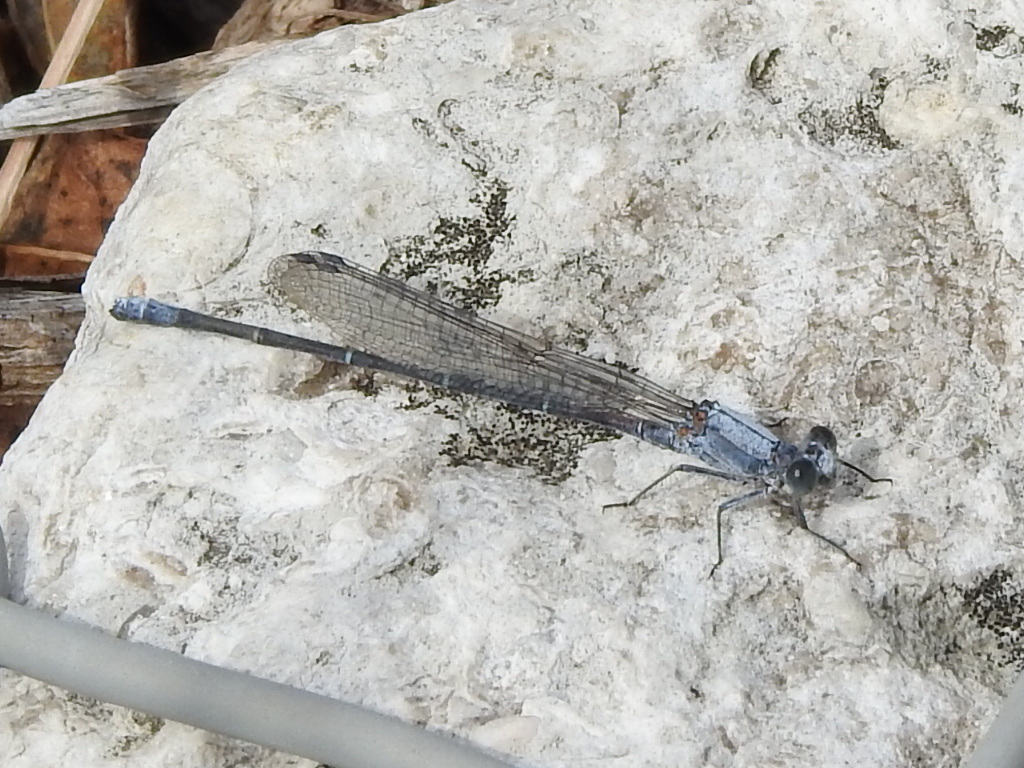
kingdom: Animalia
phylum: Arthropoda
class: Insecta
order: Odonata
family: Coenagrionidae
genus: Argia
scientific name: Argia moesta
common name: Powdered dancer
